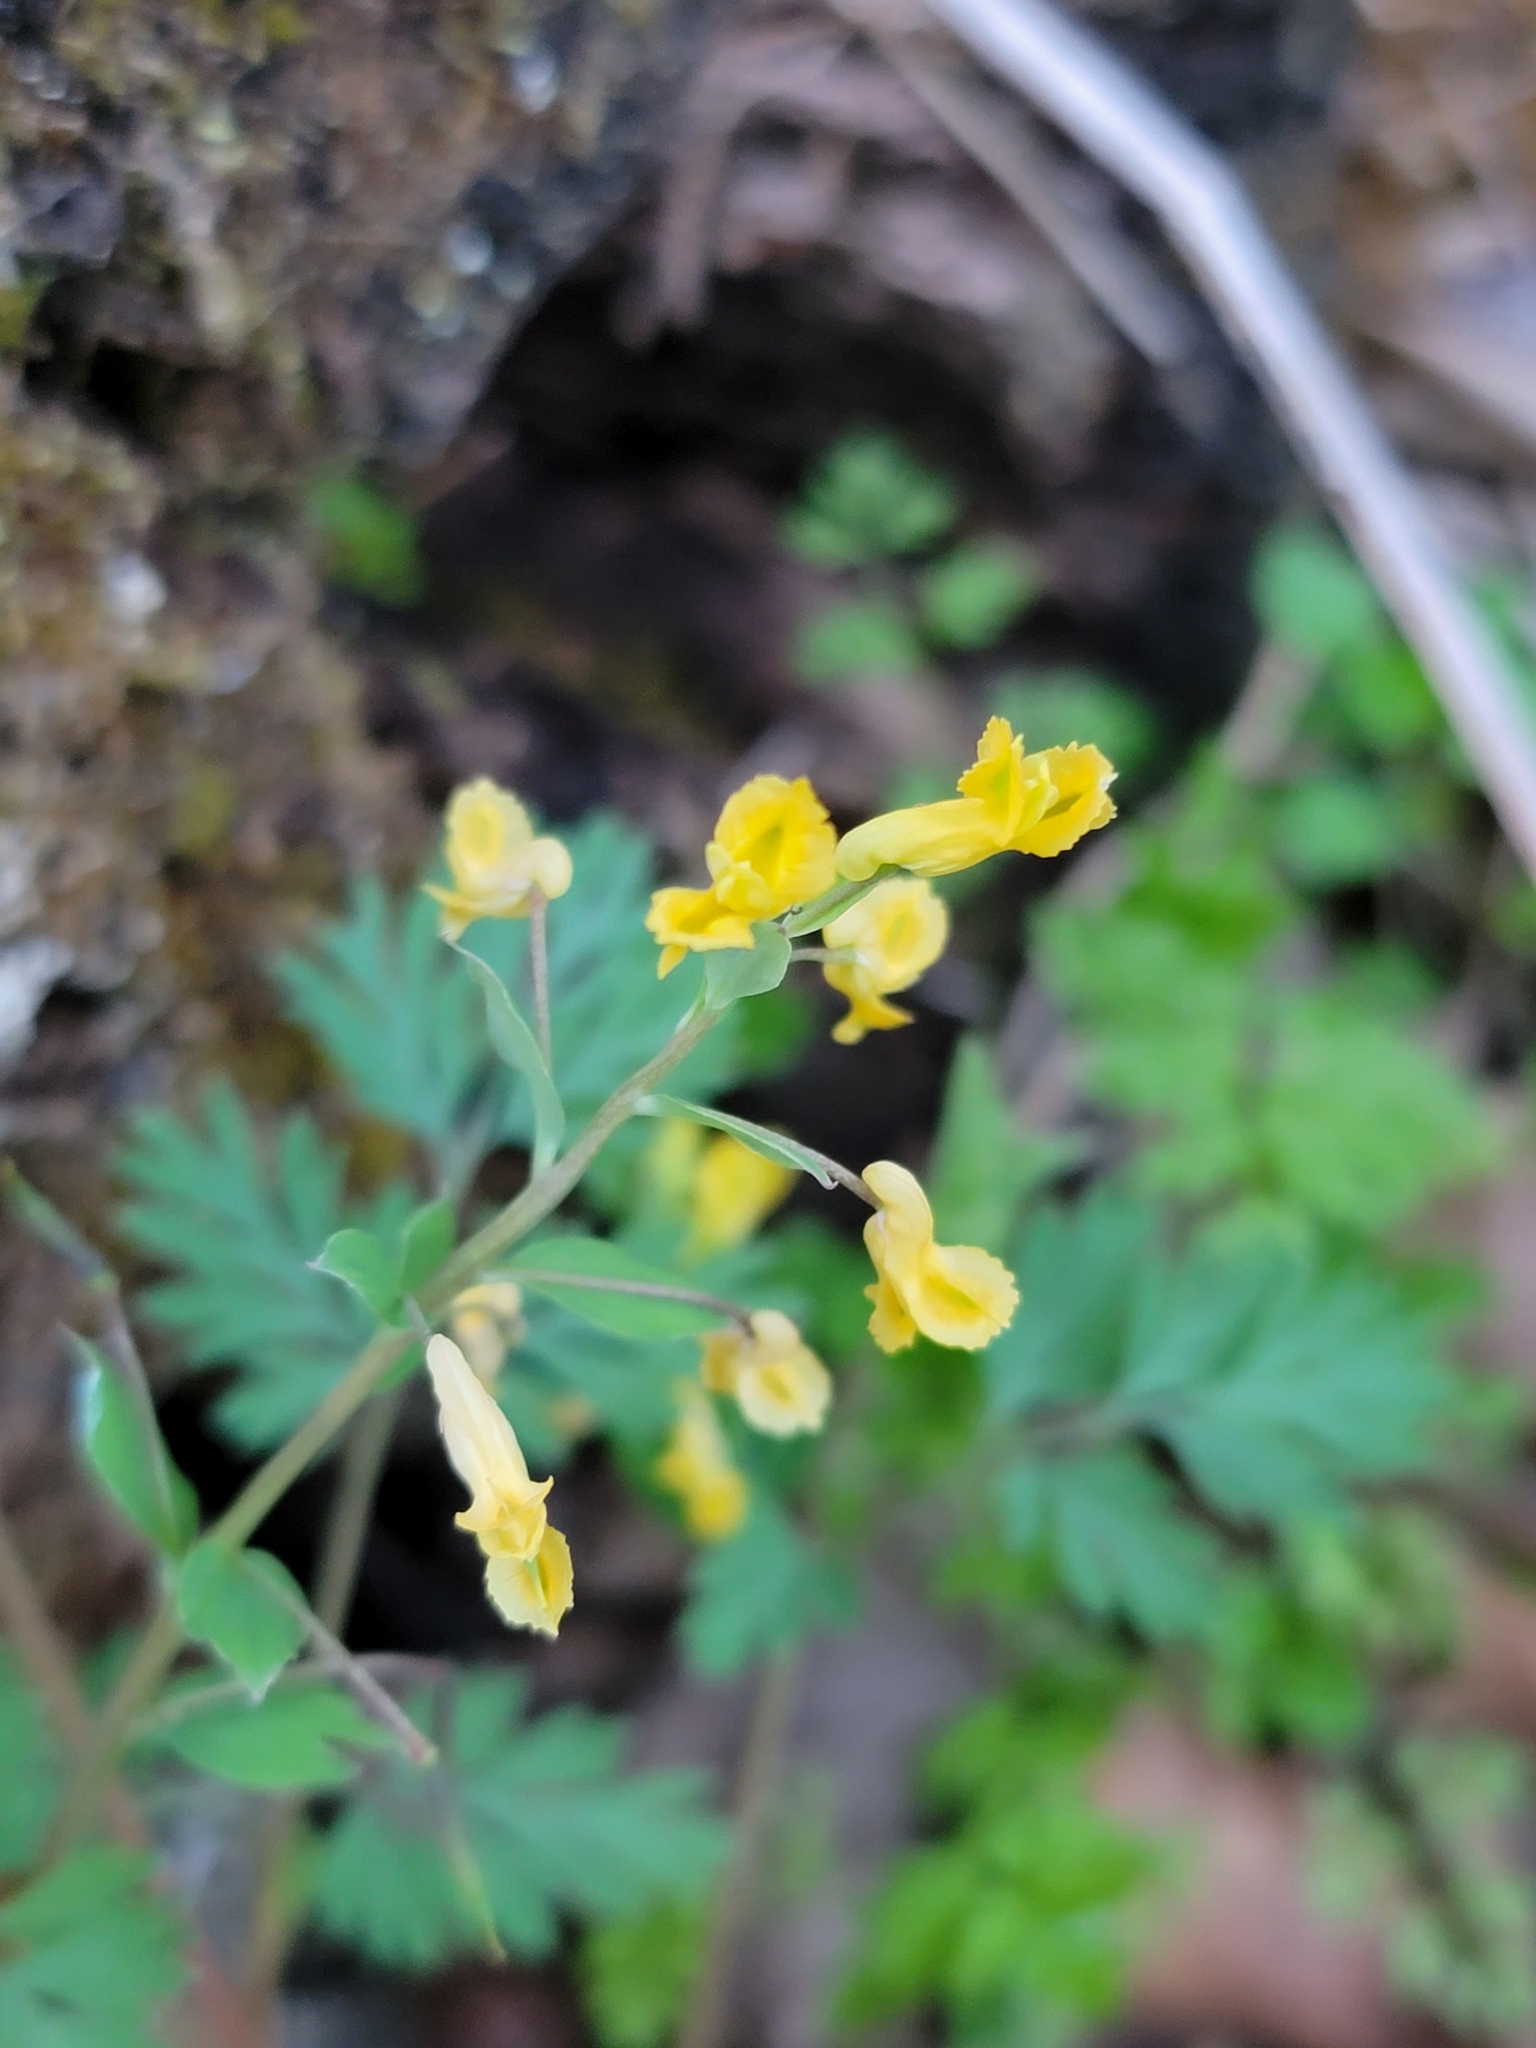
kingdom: Plantae
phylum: Tracheophyta
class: Magnoliopsida
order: Ranunculales
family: Papaveraceae
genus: Corydalis
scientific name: Corydalis flavula
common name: Yellow corydalis
